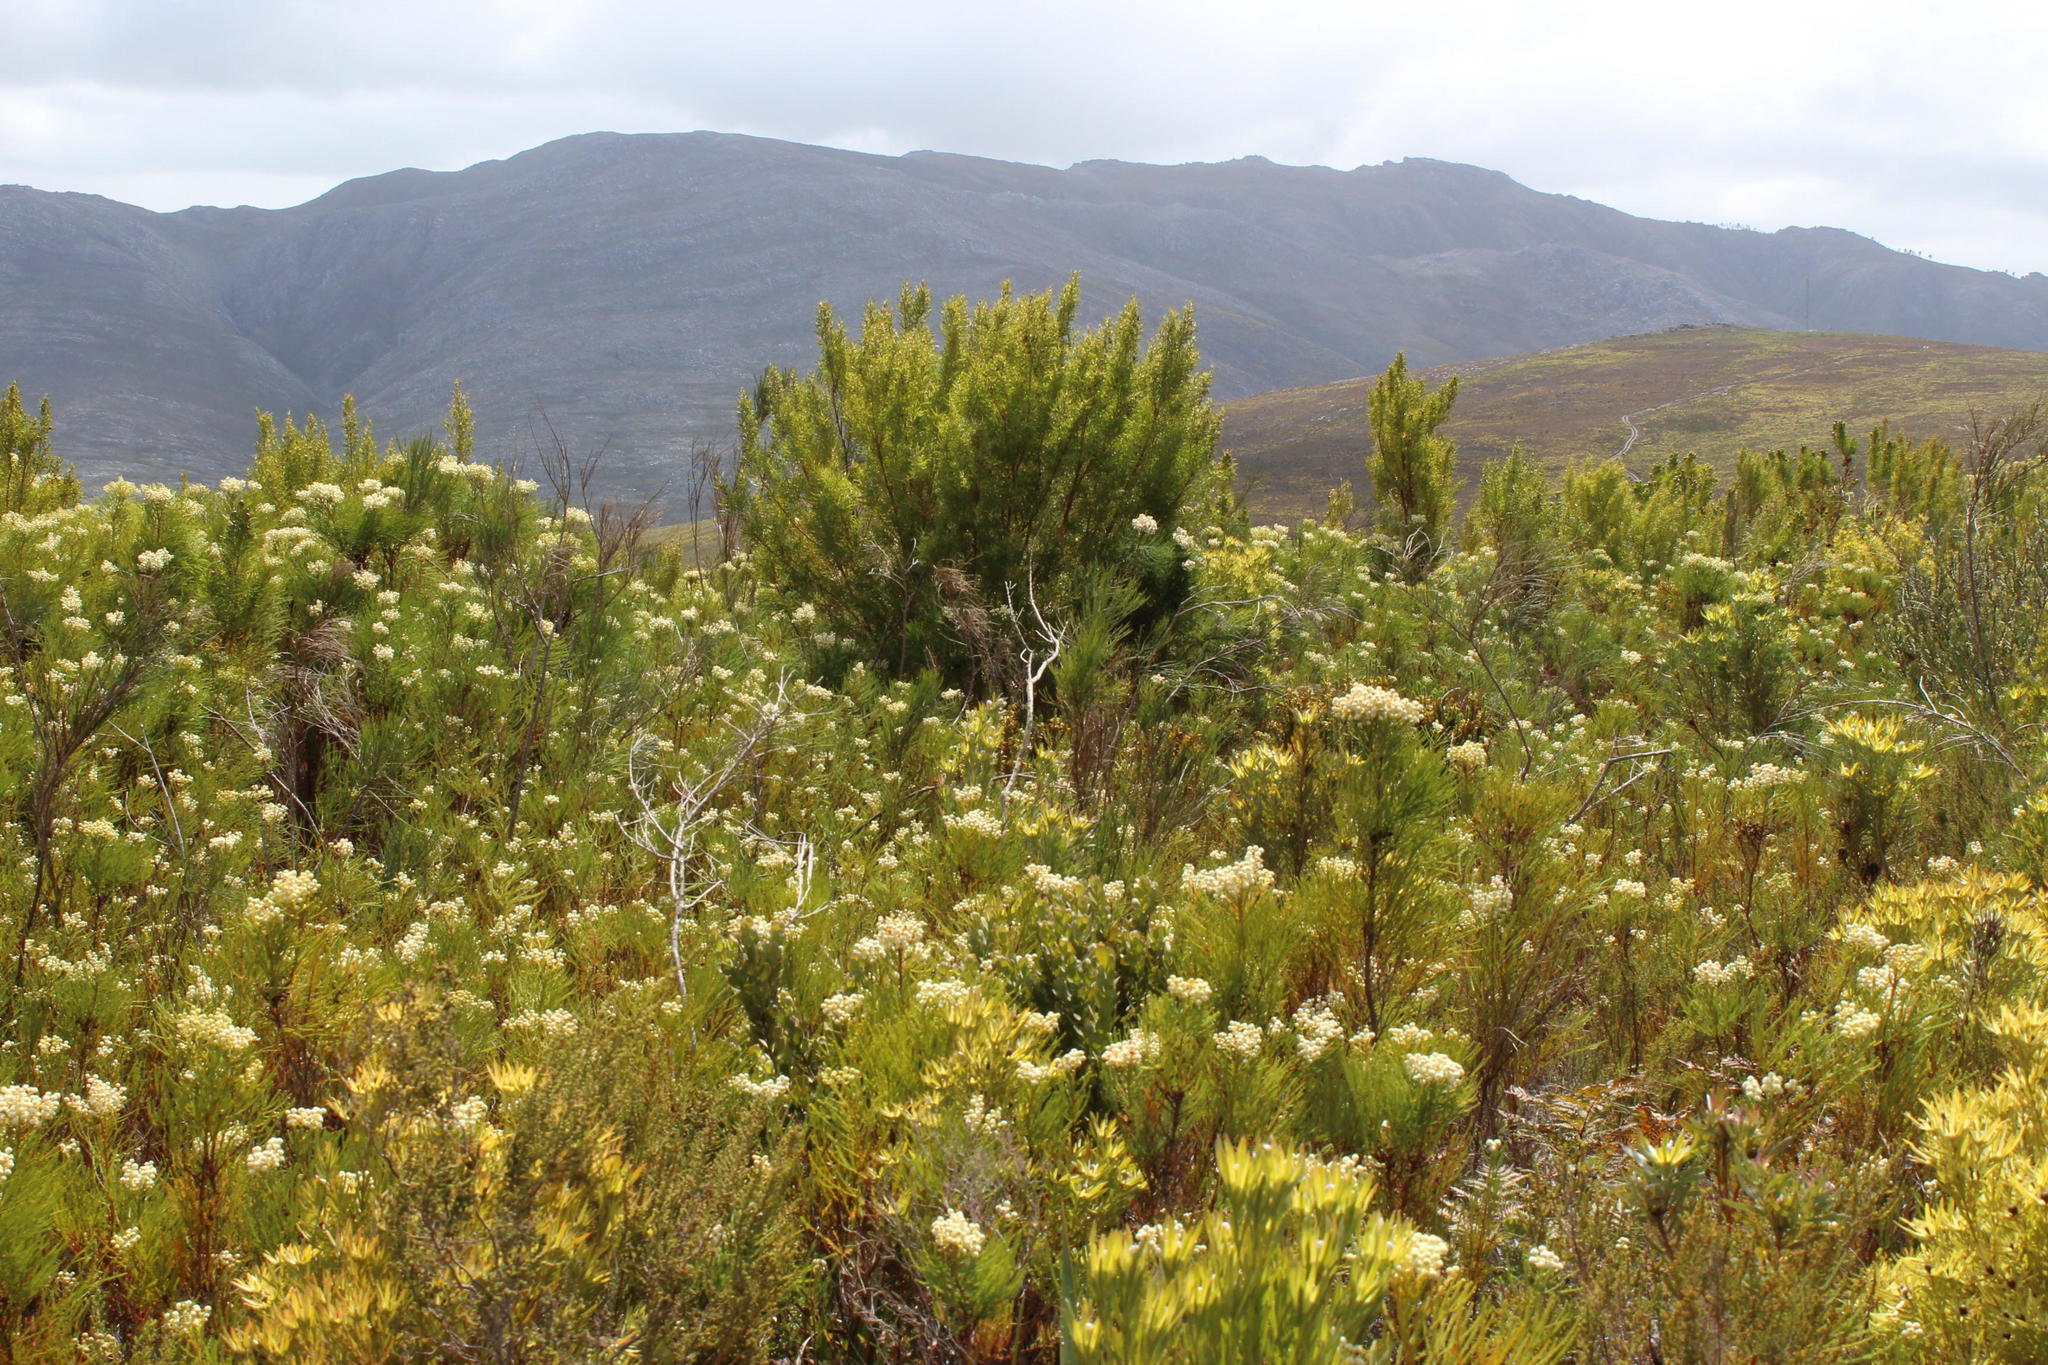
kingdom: Plantae
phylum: Tracheophyta
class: Magnoliopsida
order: Proteales
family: Proteaceae
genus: Leucadendron
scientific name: Leucadendron salicifolium
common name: Common stream conebush
